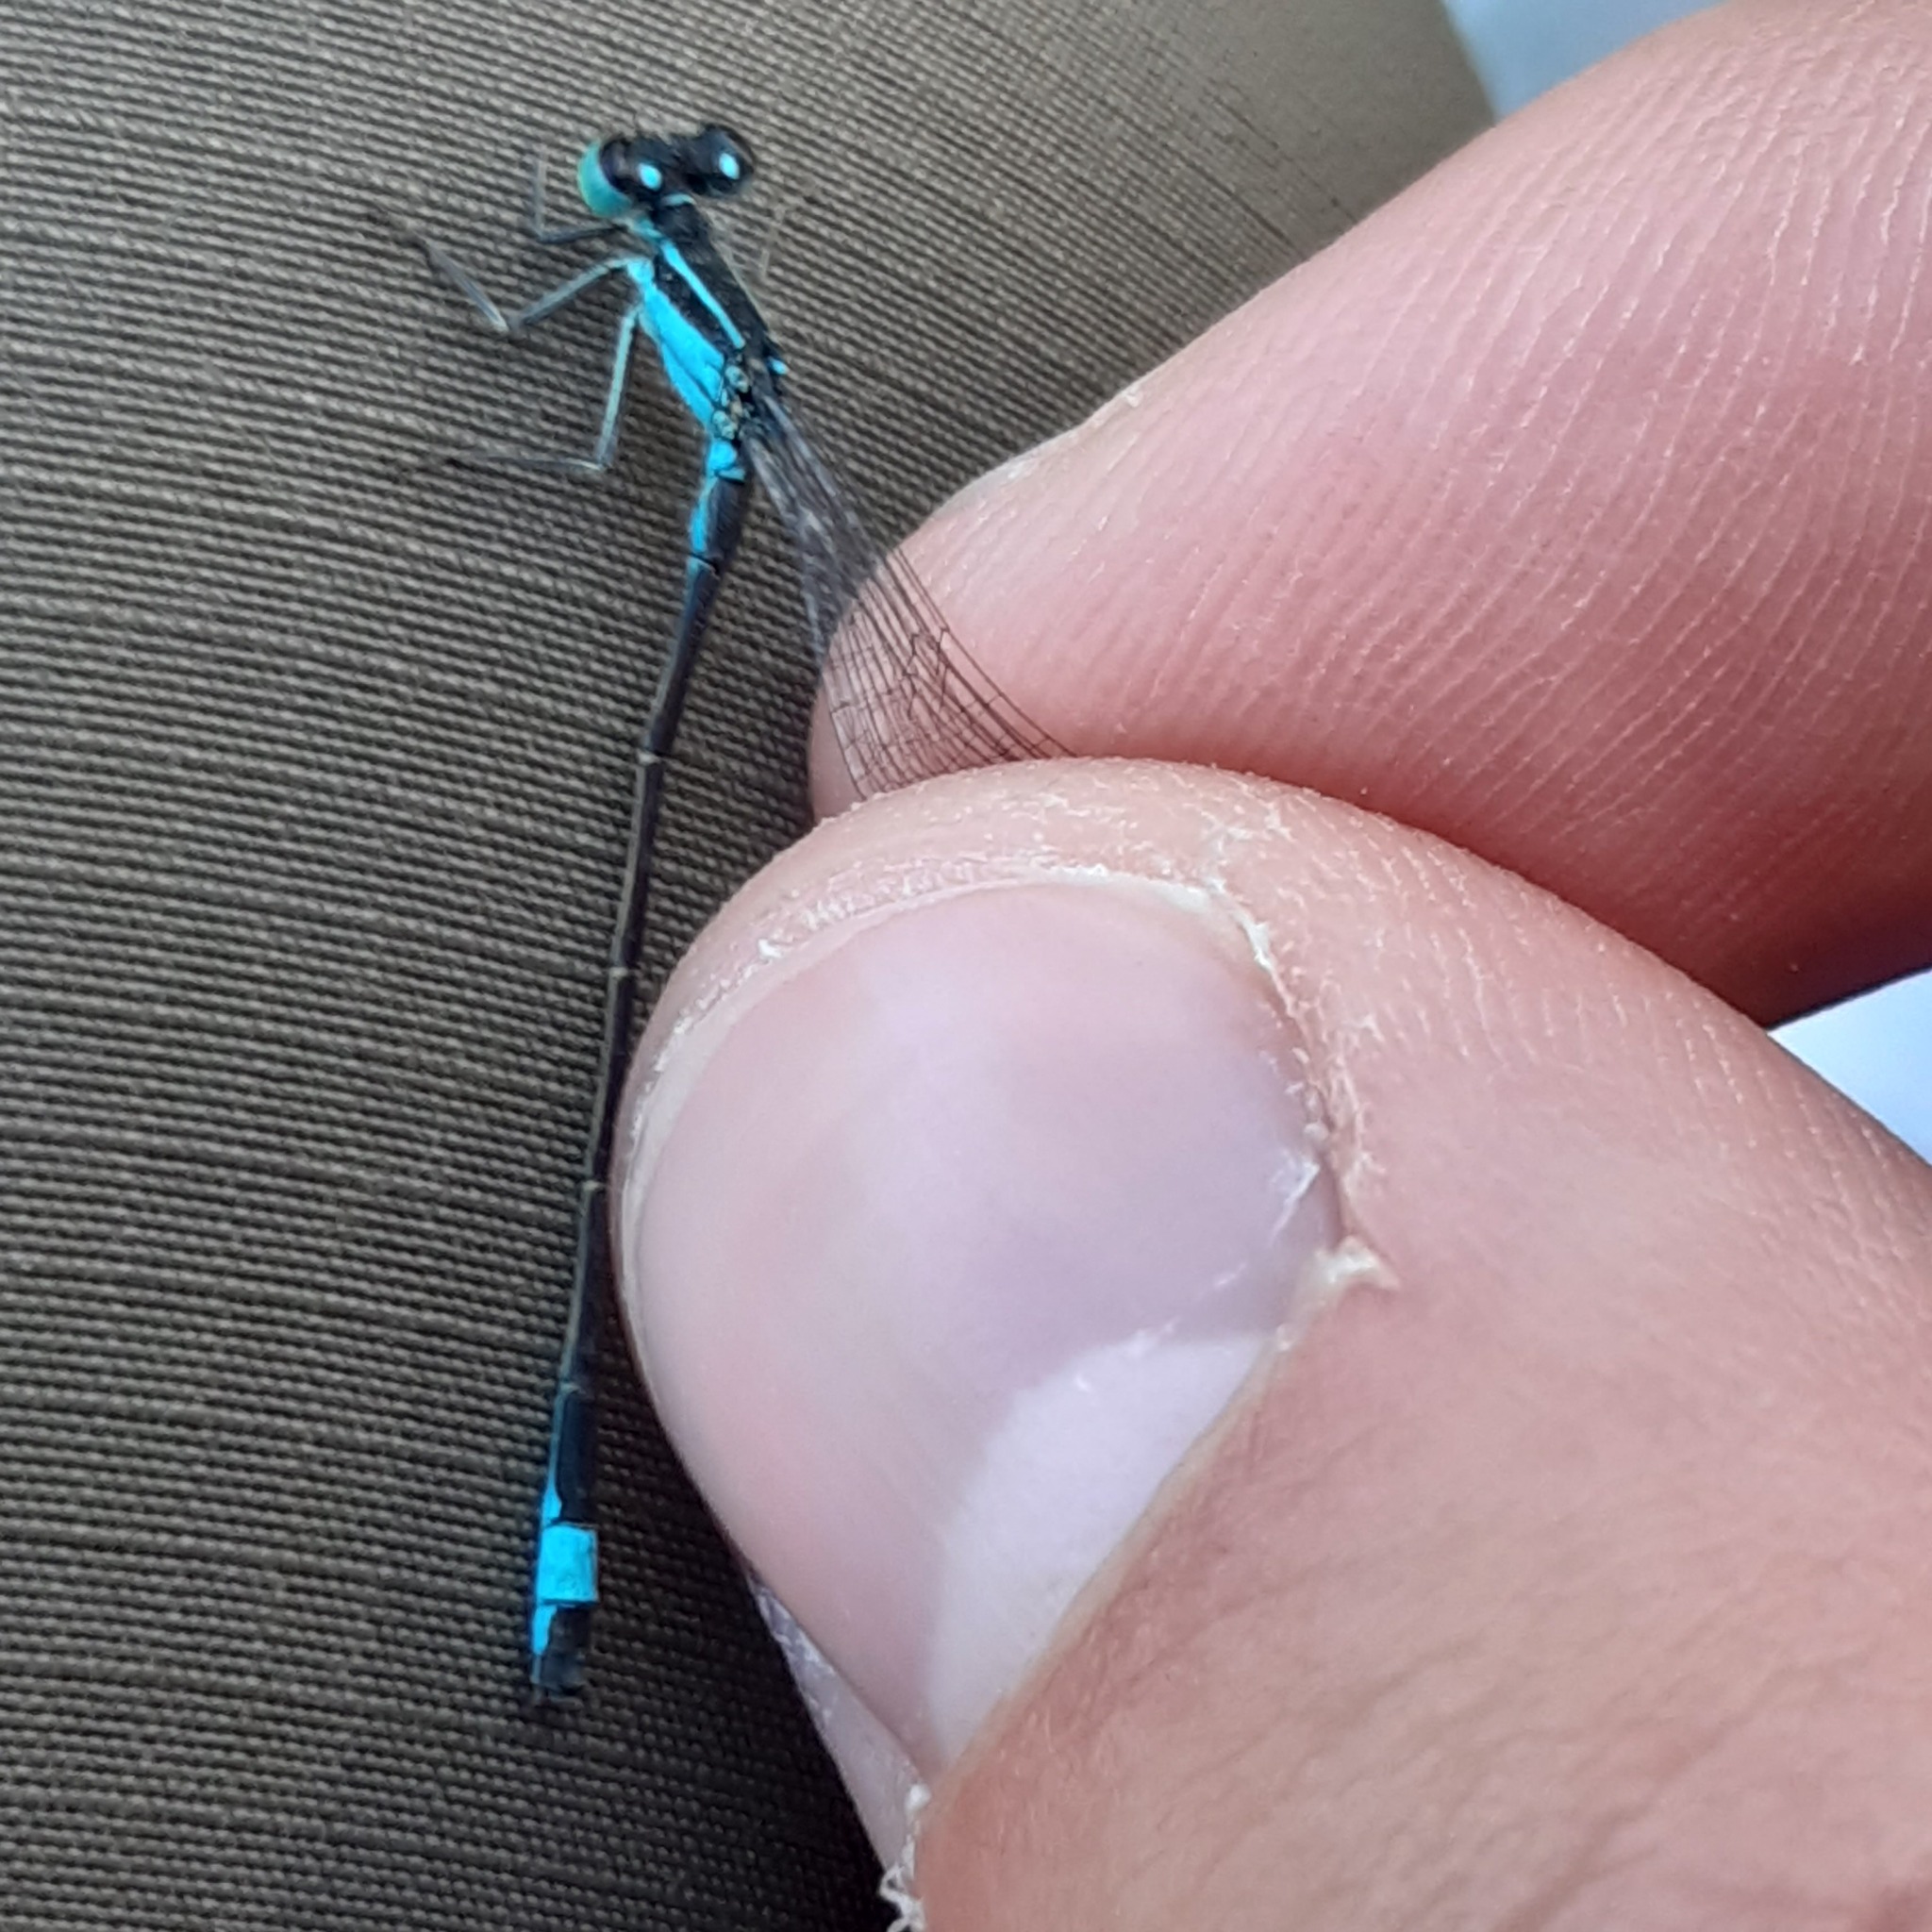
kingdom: Animalia
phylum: Arthropoda
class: Insecta
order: Odonata
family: Coenagrionidae
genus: Ischnura
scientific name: Ischnura elegans
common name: Blue-tailed damselfly
